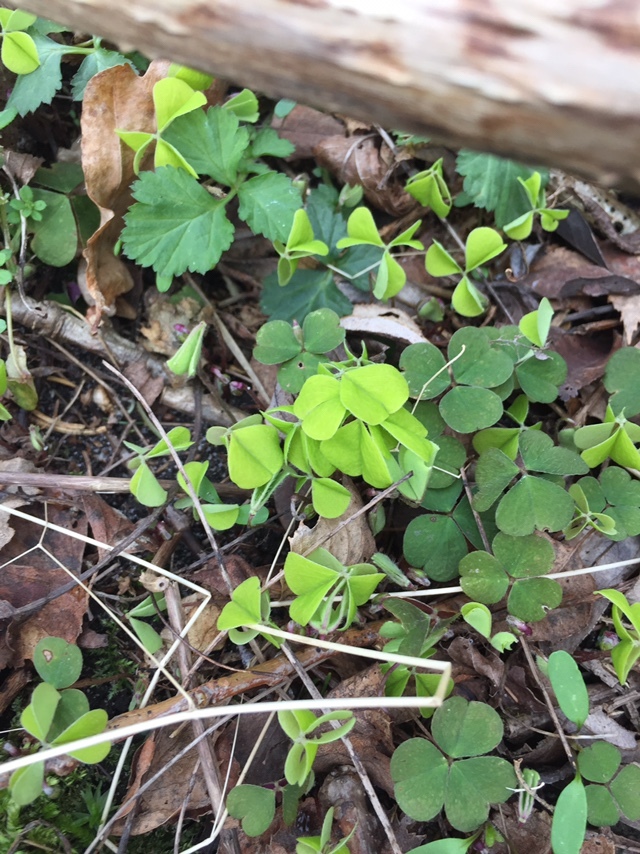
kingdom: Plantae
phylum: Tracheophyta
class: Magnoliopsida
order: Oxalidales
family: Oxalidaceae
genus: Oxalis
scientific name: Oxalis acetosella
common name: Wood-sorrel
